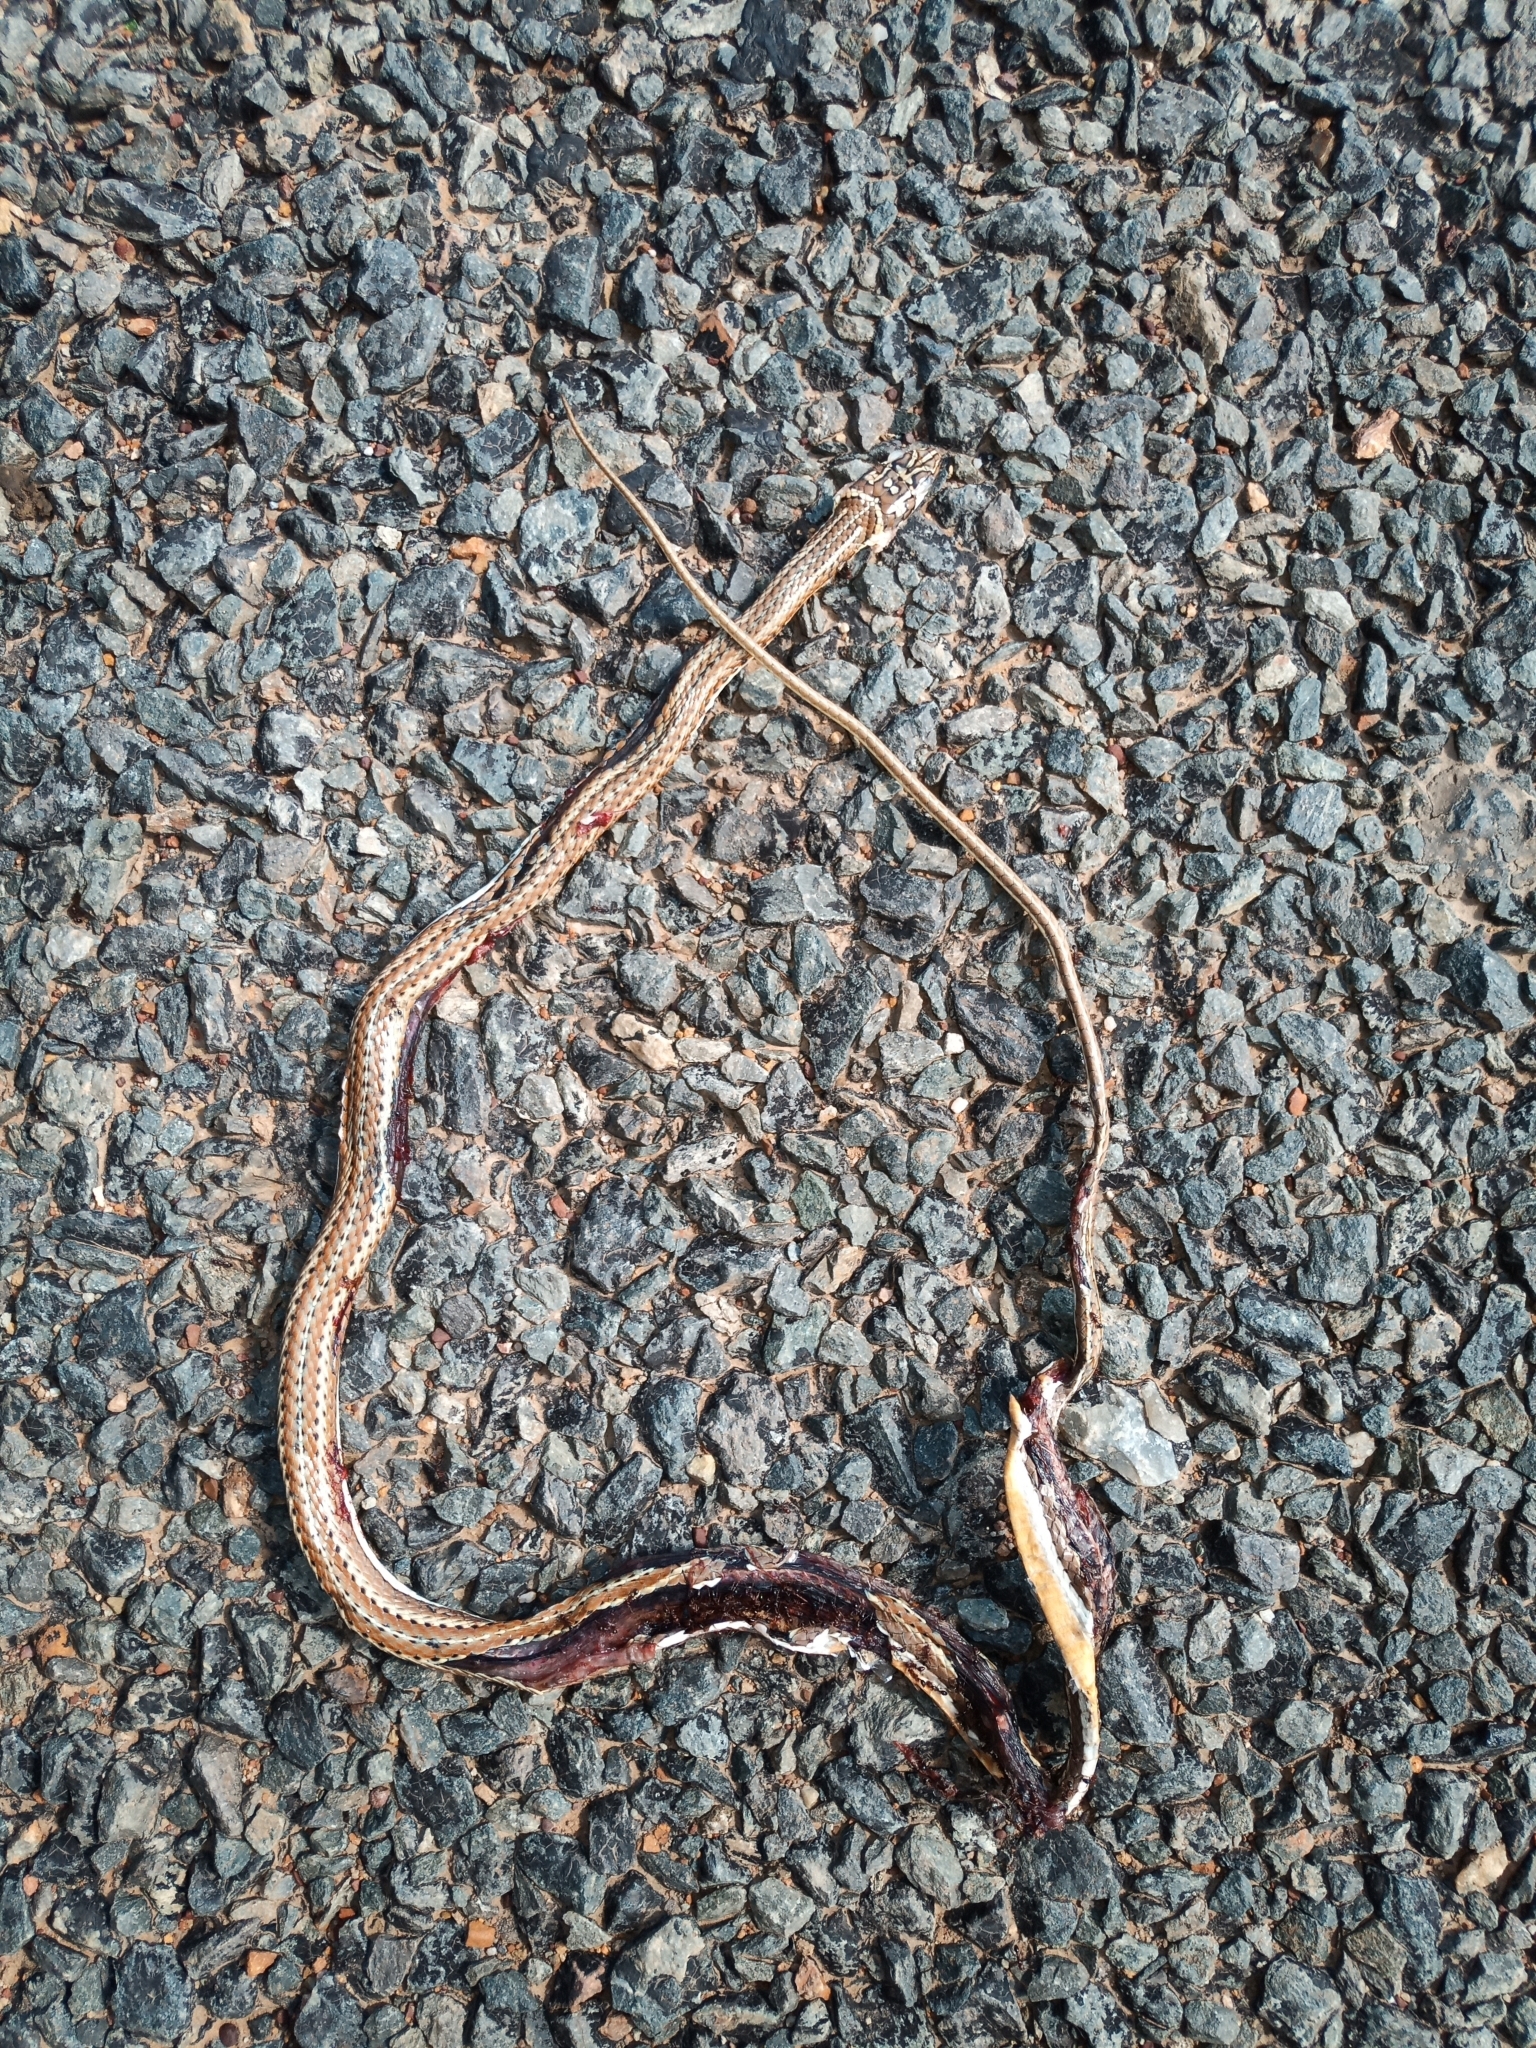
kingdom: Animalia
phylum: Chordata
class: Squamata
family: Psammophiidae
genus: Psammophis
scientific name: Psammophis notostictus
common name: Karoo sand snake
